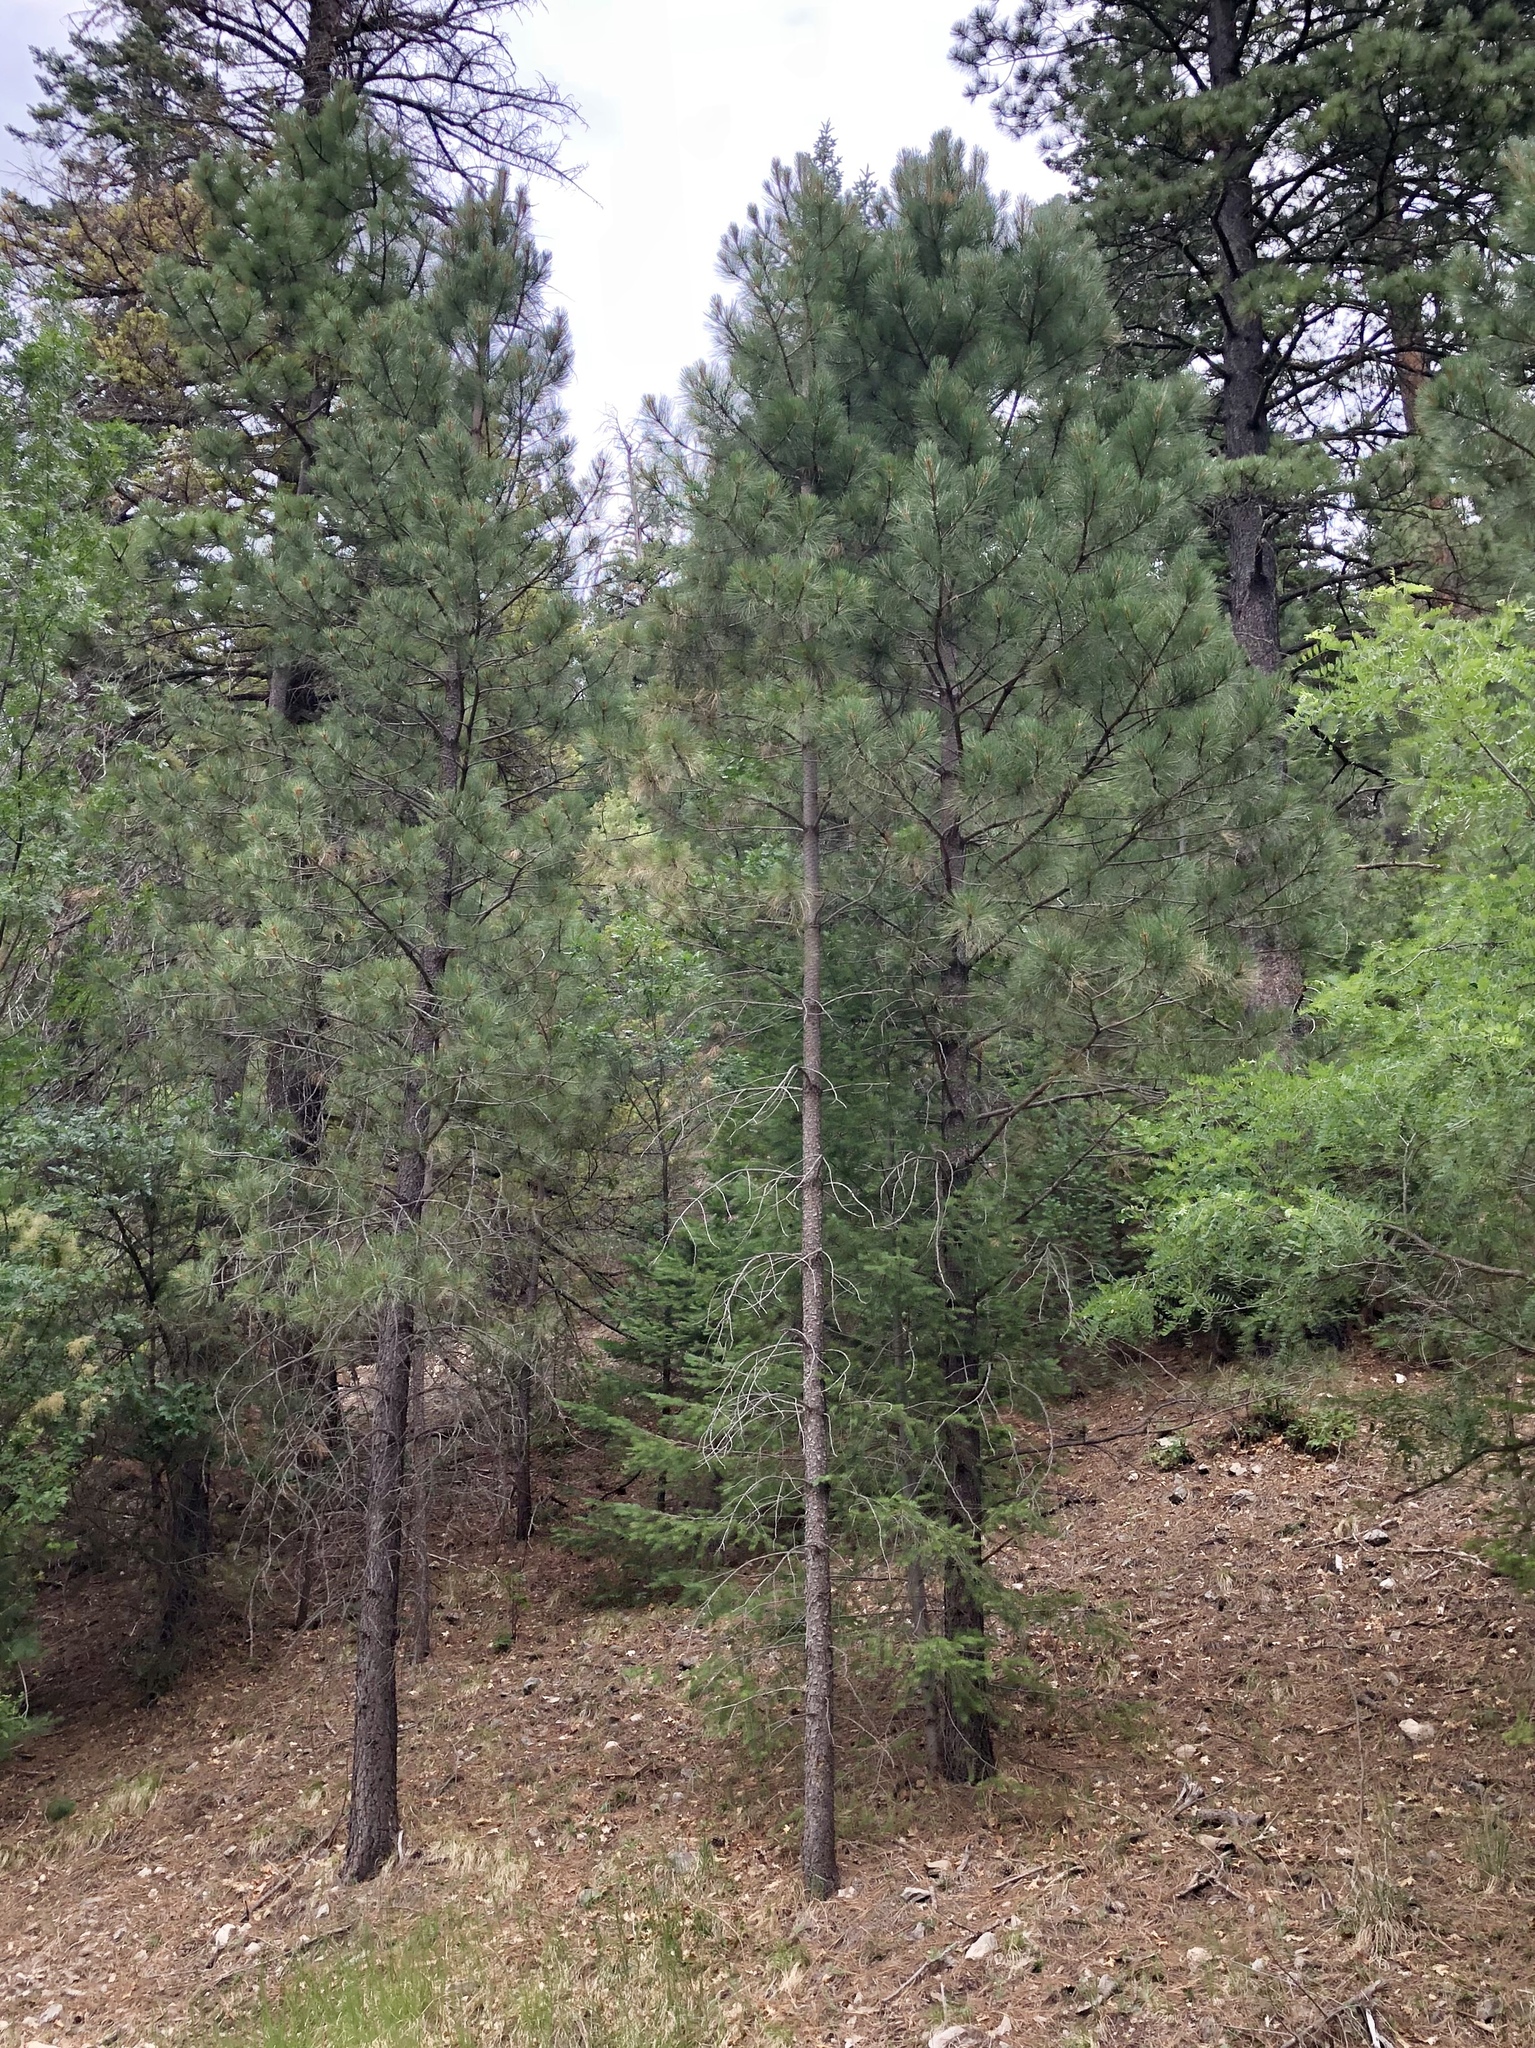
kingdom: Plantae
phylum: Tracheophyta
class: Pinopsida
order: Pinales
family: Pinaceae
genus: Pinus
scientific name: Pinus ponderosa
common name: Western yellow-pine
